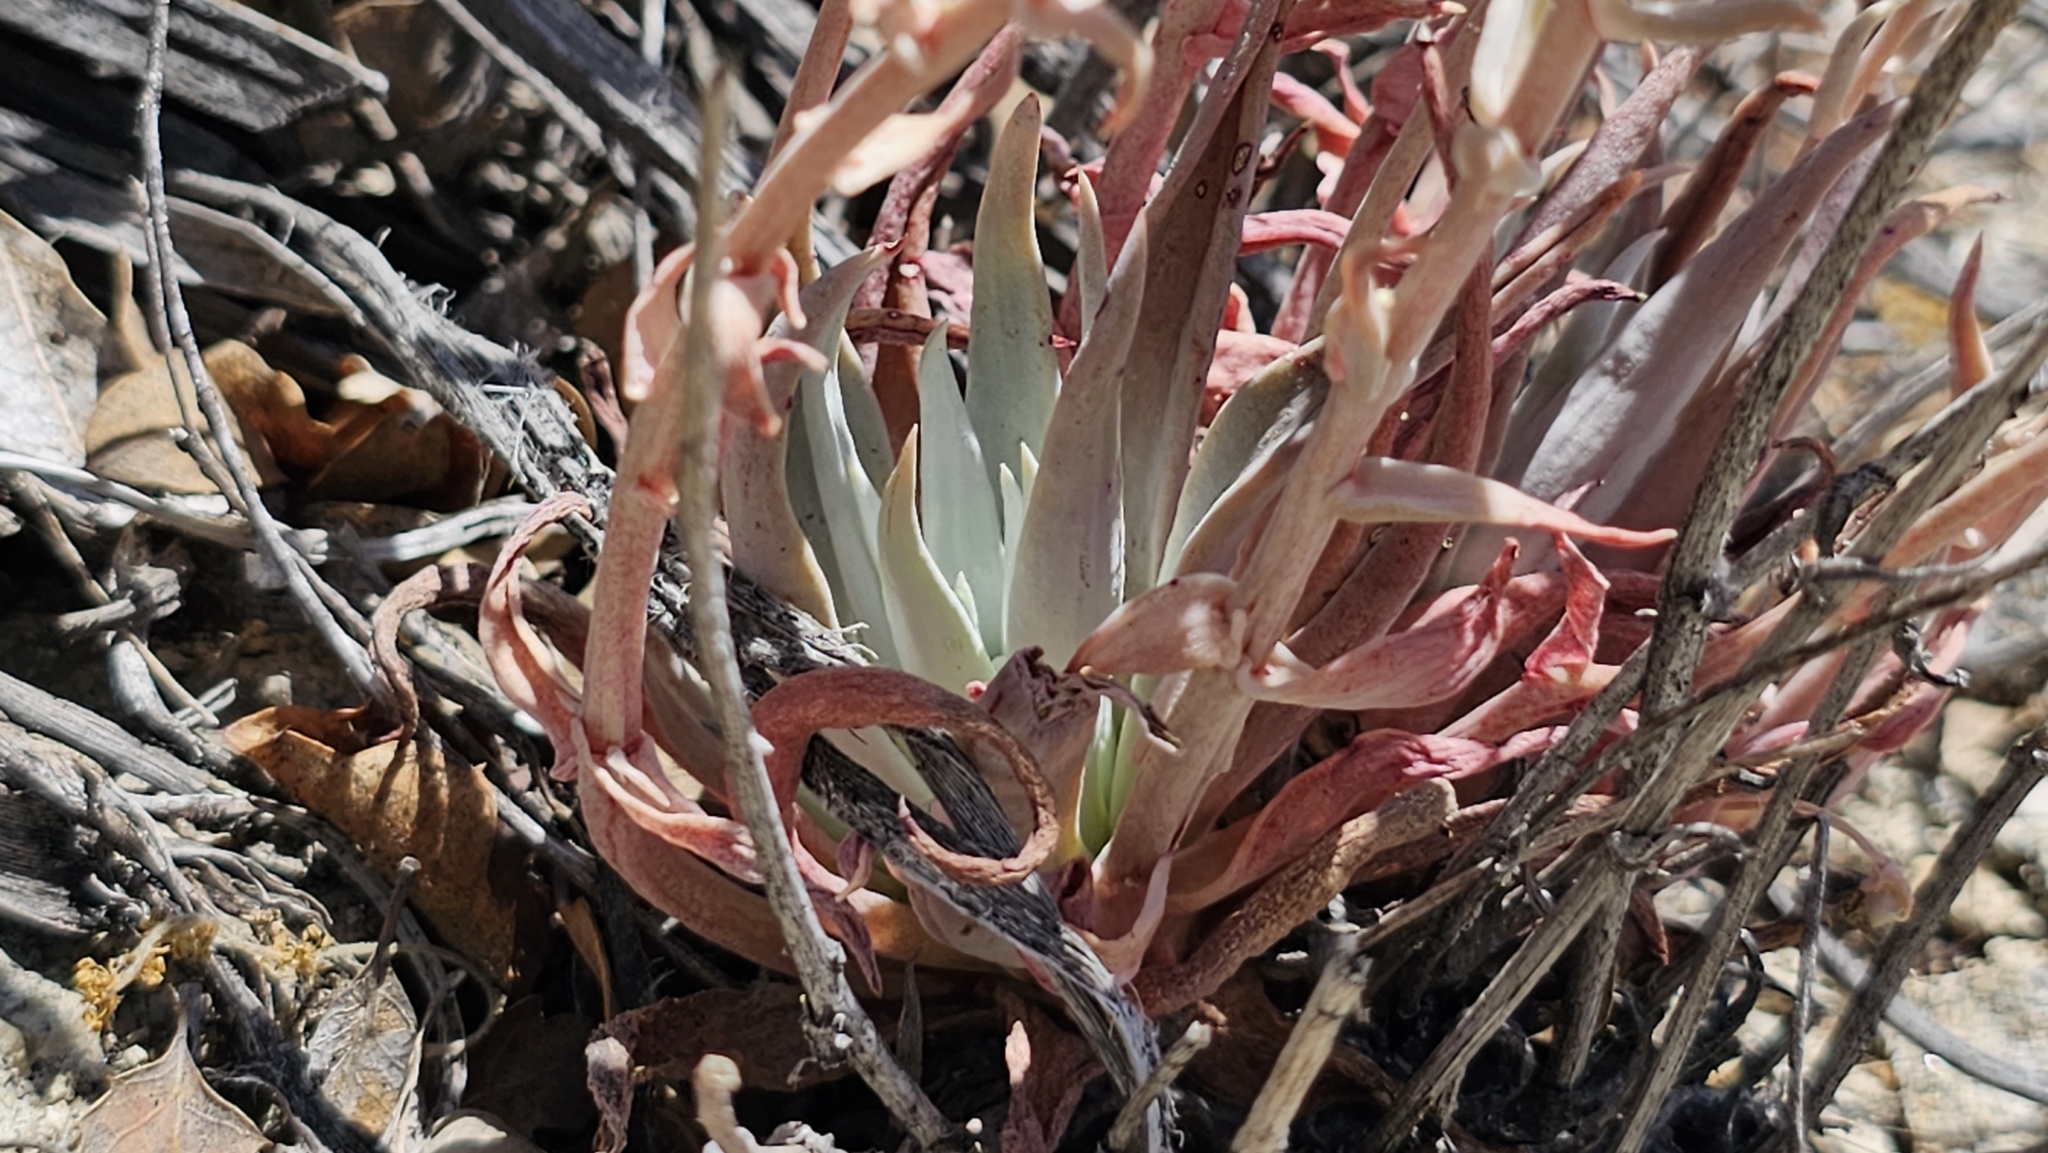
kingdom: Plantae
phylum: Tracheophyta
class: Magnoliopsida
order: Saxifragales
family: Crassulaceae
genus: Dudleya
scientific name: Dudleya abramsii
